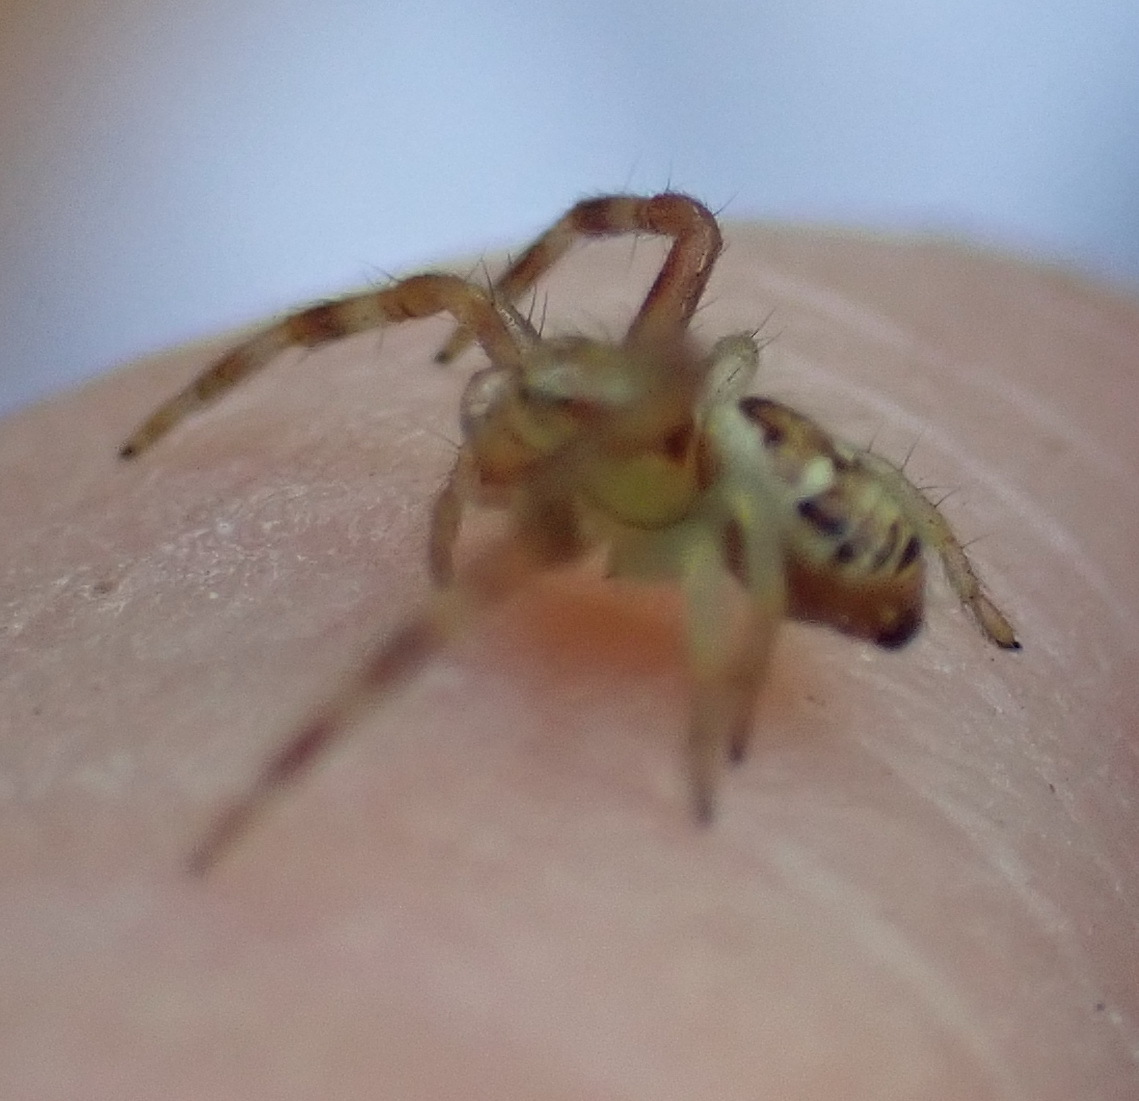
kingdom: Animalia
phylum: Arthropoda
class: Arachnida
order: Araneae
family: Thomisidae
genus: Synema
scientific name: Synema imitatrix
